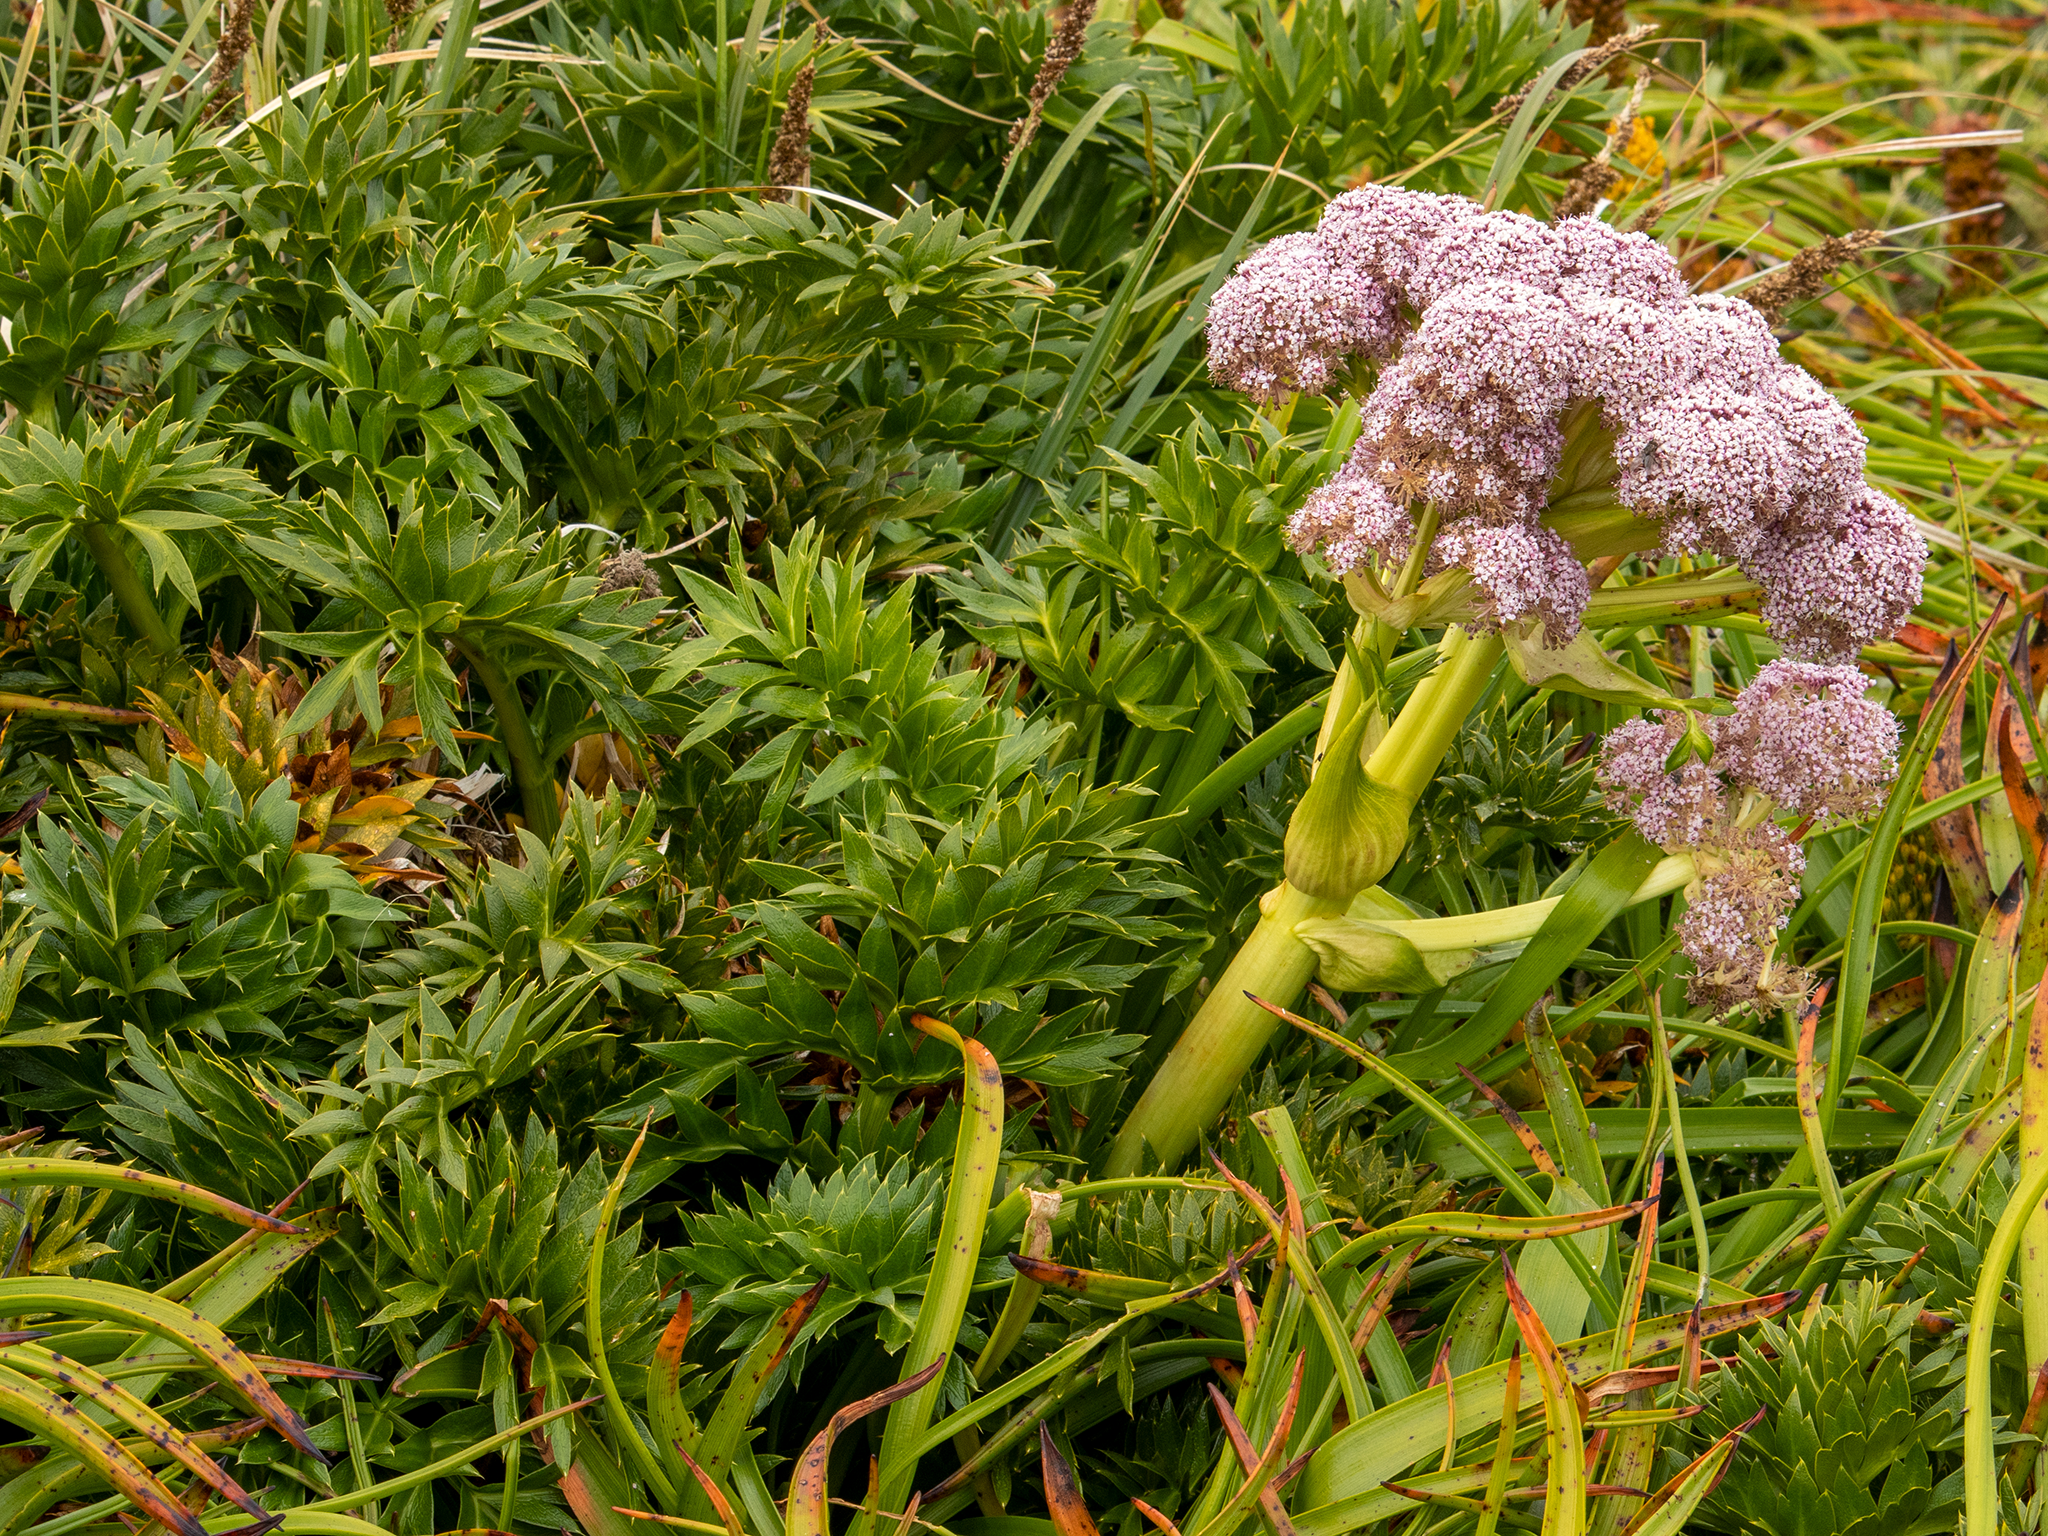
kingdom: Plantae
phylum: Tracheophyta
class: Magnoliopsida
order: Apiales
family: Apiaceae
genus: Anisotome
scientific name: Anisotome latifolia
